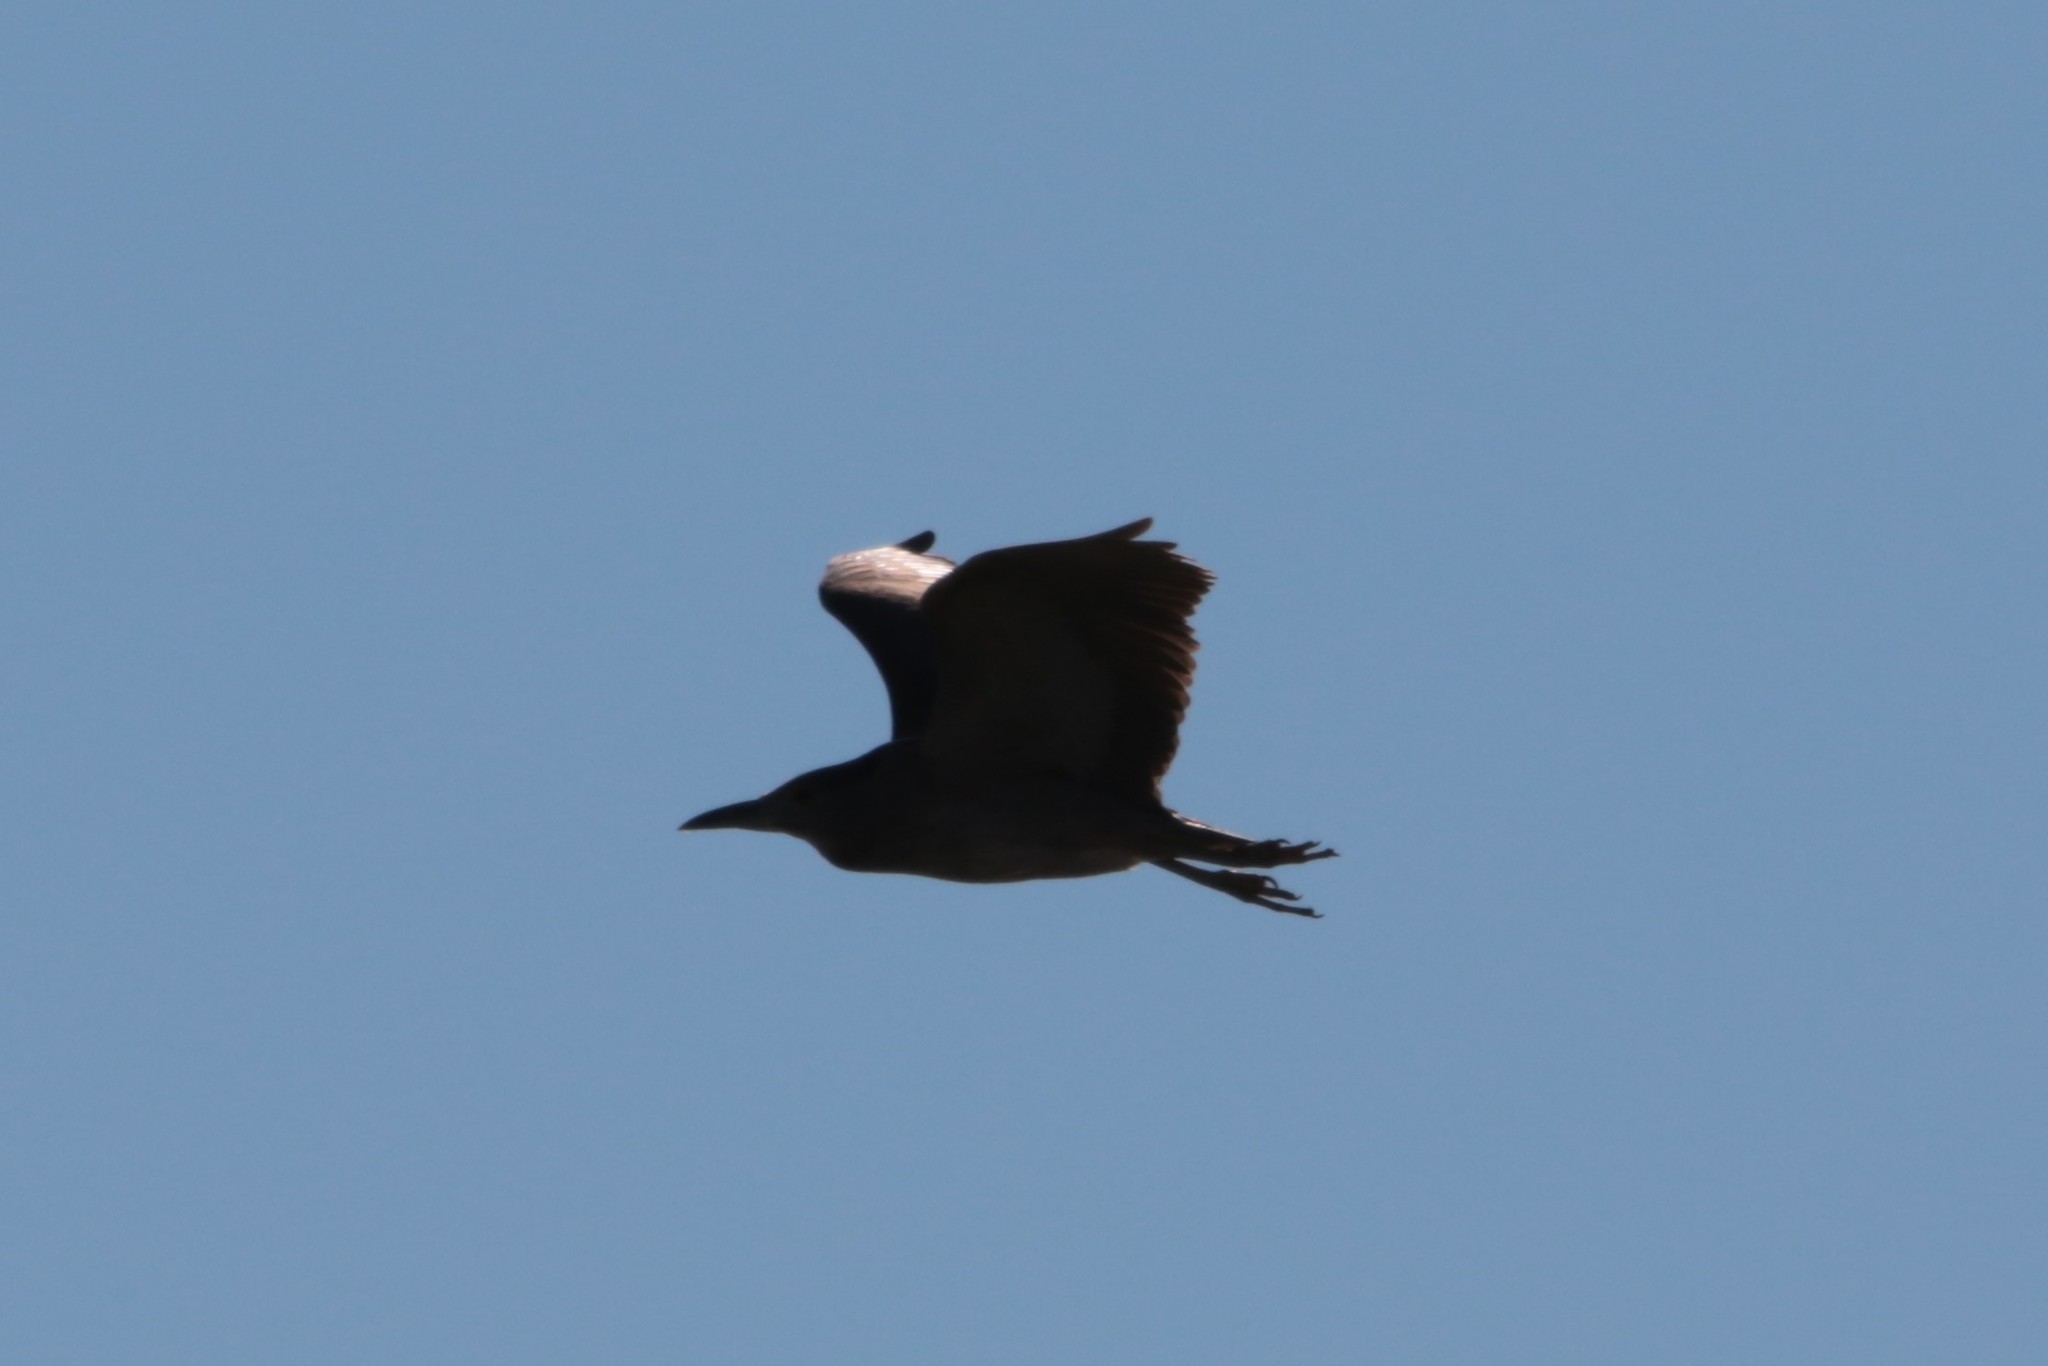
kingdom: Animalia
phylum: Chordata
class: Aves
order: Pelecaniformes
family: Ardeidae
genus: Nycticorax
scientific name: Nycticorax nycticorax
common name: Black-crowned night heron
